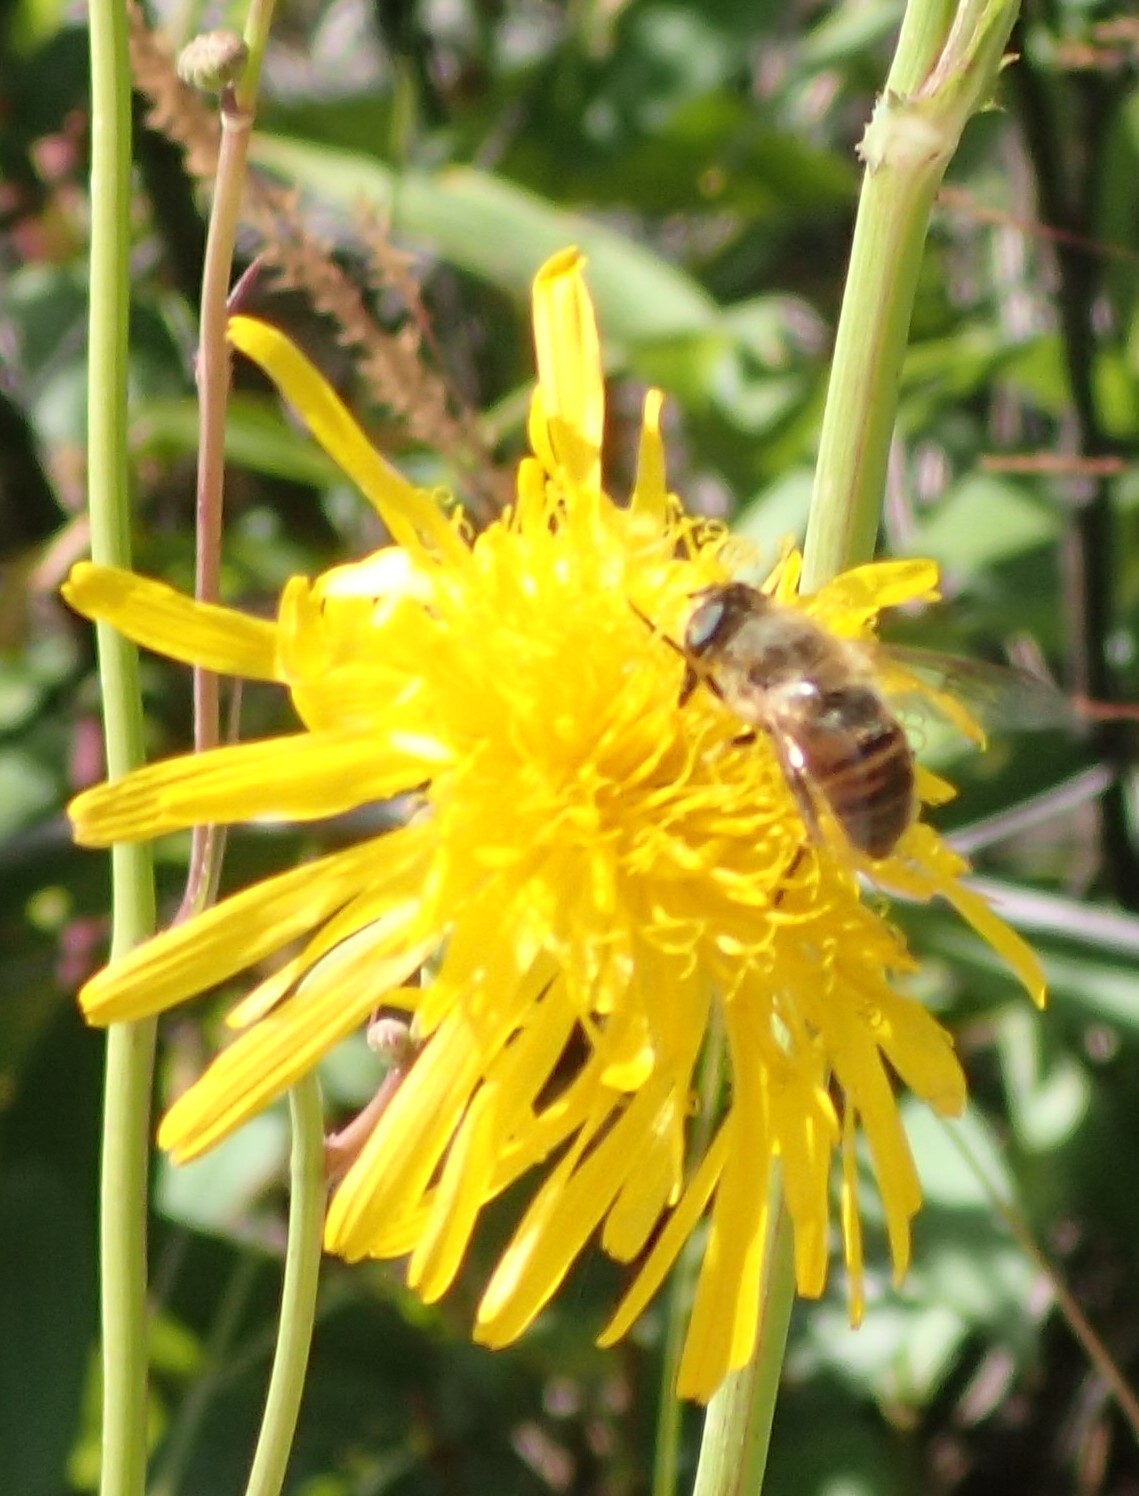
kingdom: Animalia
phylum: Arthropoda
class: Insecta
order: Diptera
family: Syrphidae
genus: Eristalis
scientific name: Eristalis tenax
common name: Drone fly
